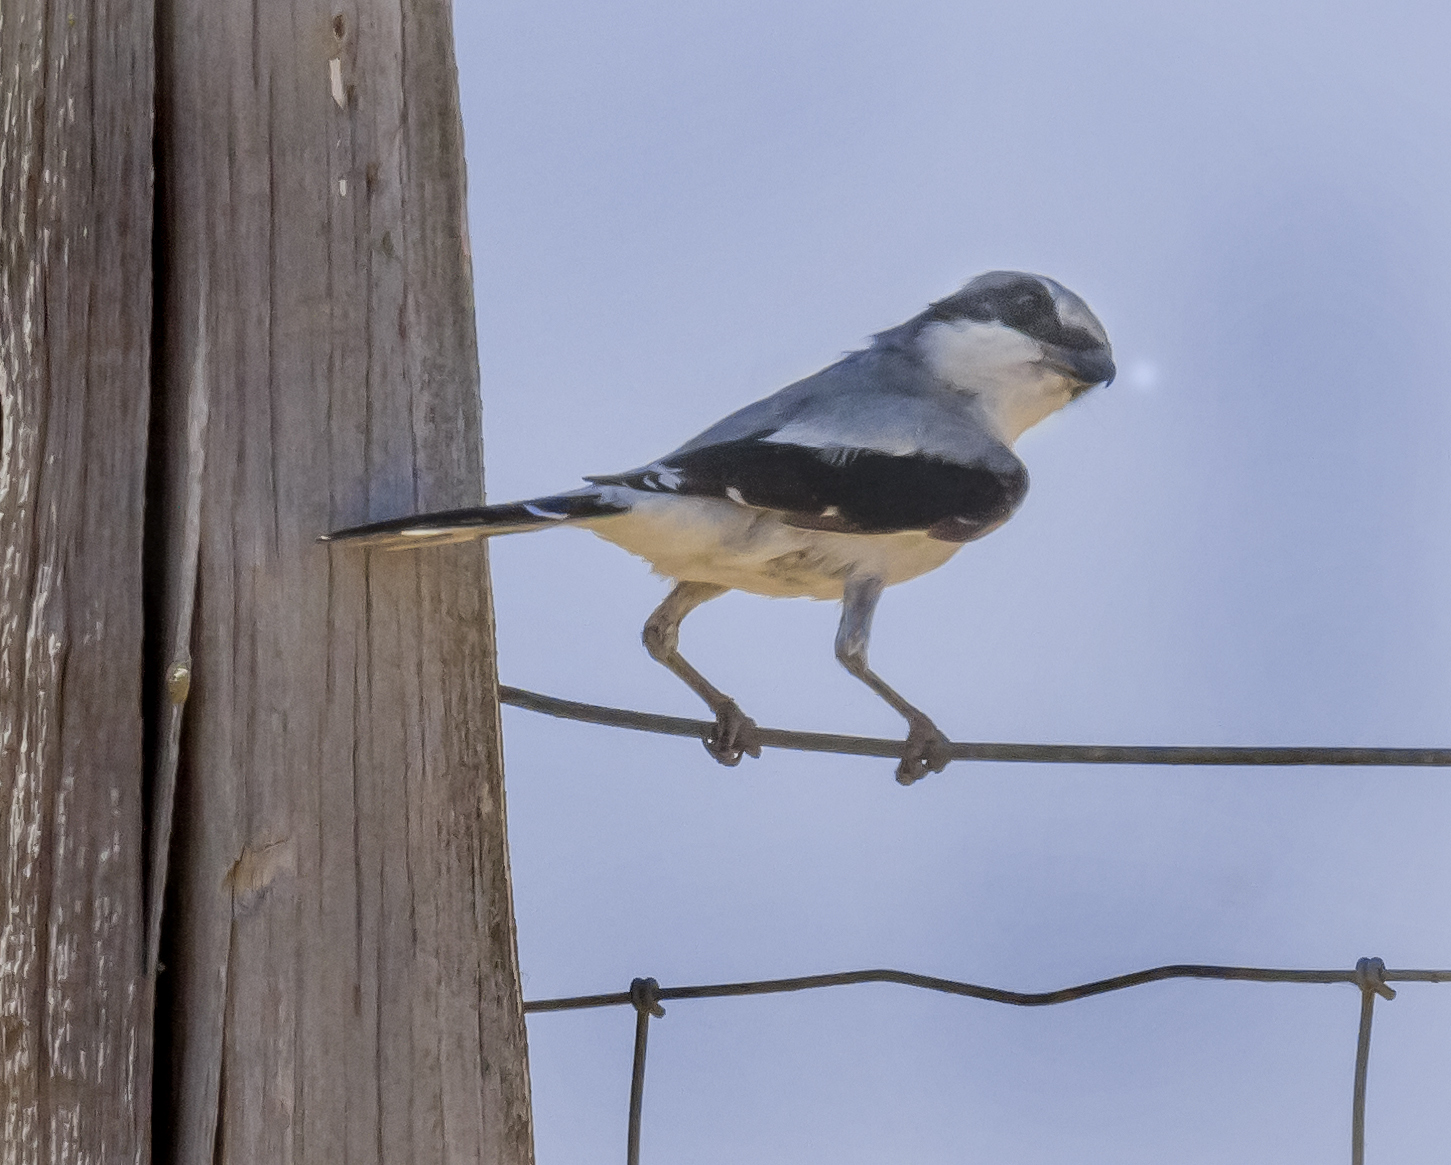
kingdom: Animalia
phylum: Chordata
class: Aves
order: Passeriformes
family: Laniidae
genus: Lanius
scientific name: Lanius ludovicianus
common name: Loggerhead shrike
